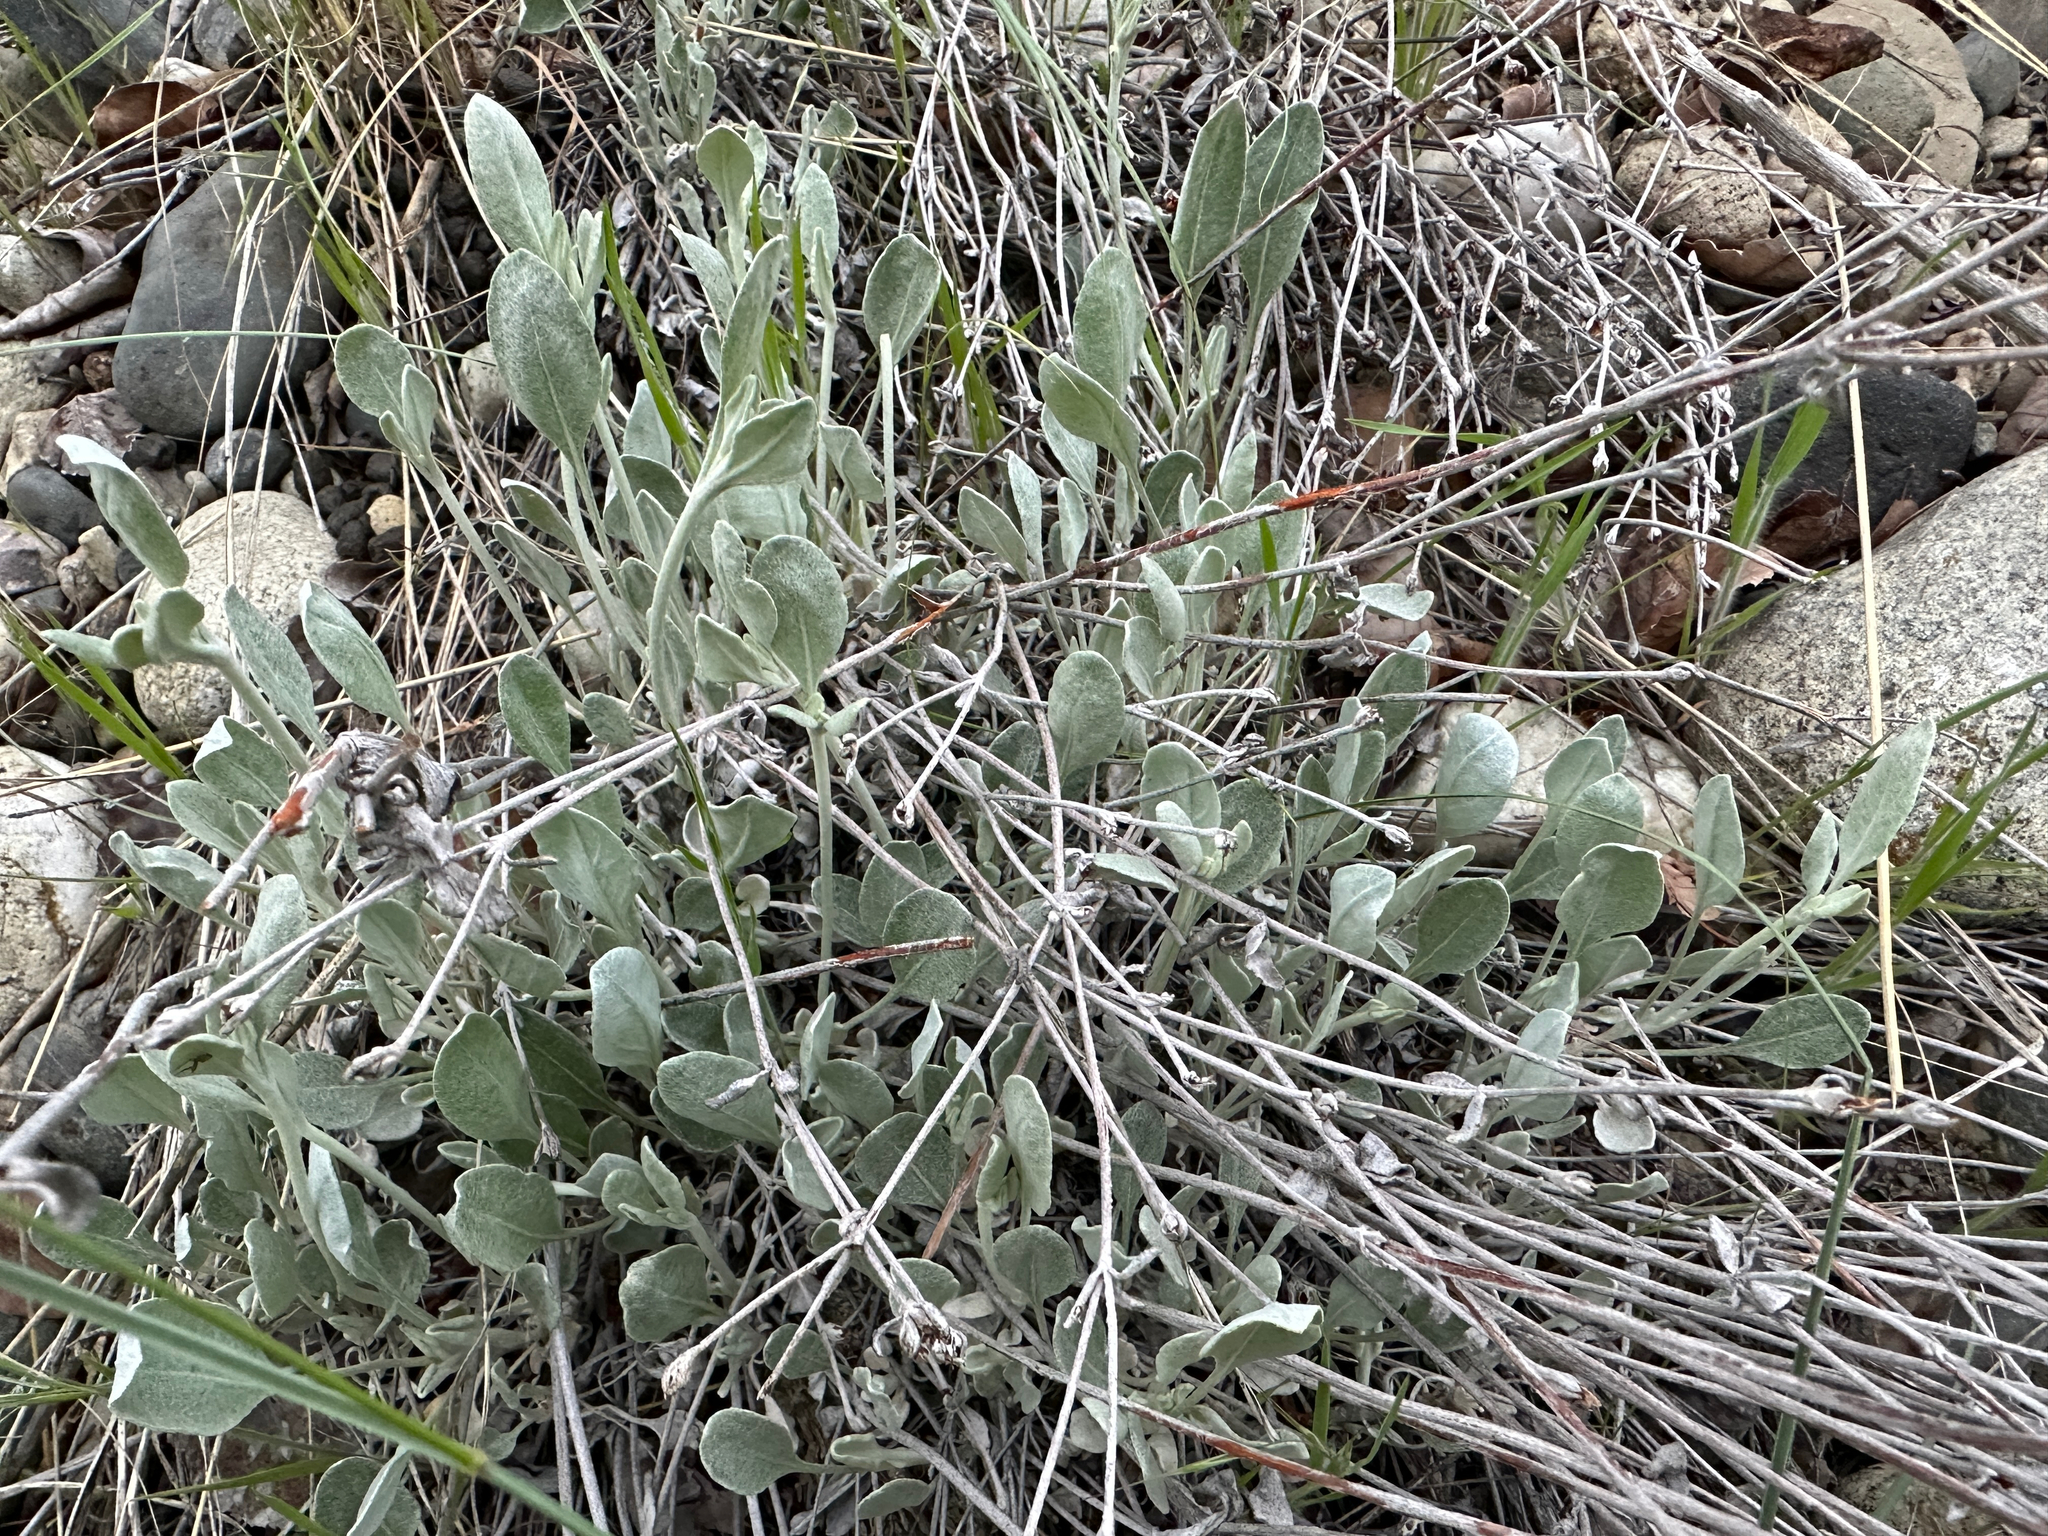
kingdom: Plantae
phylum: Tracheophyta
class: Magnoliopsida
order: Caryophyllales
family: Polygonaceae
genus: Eriogonum
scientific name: Eriogonum niveum
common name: Snow wild buckwheat
